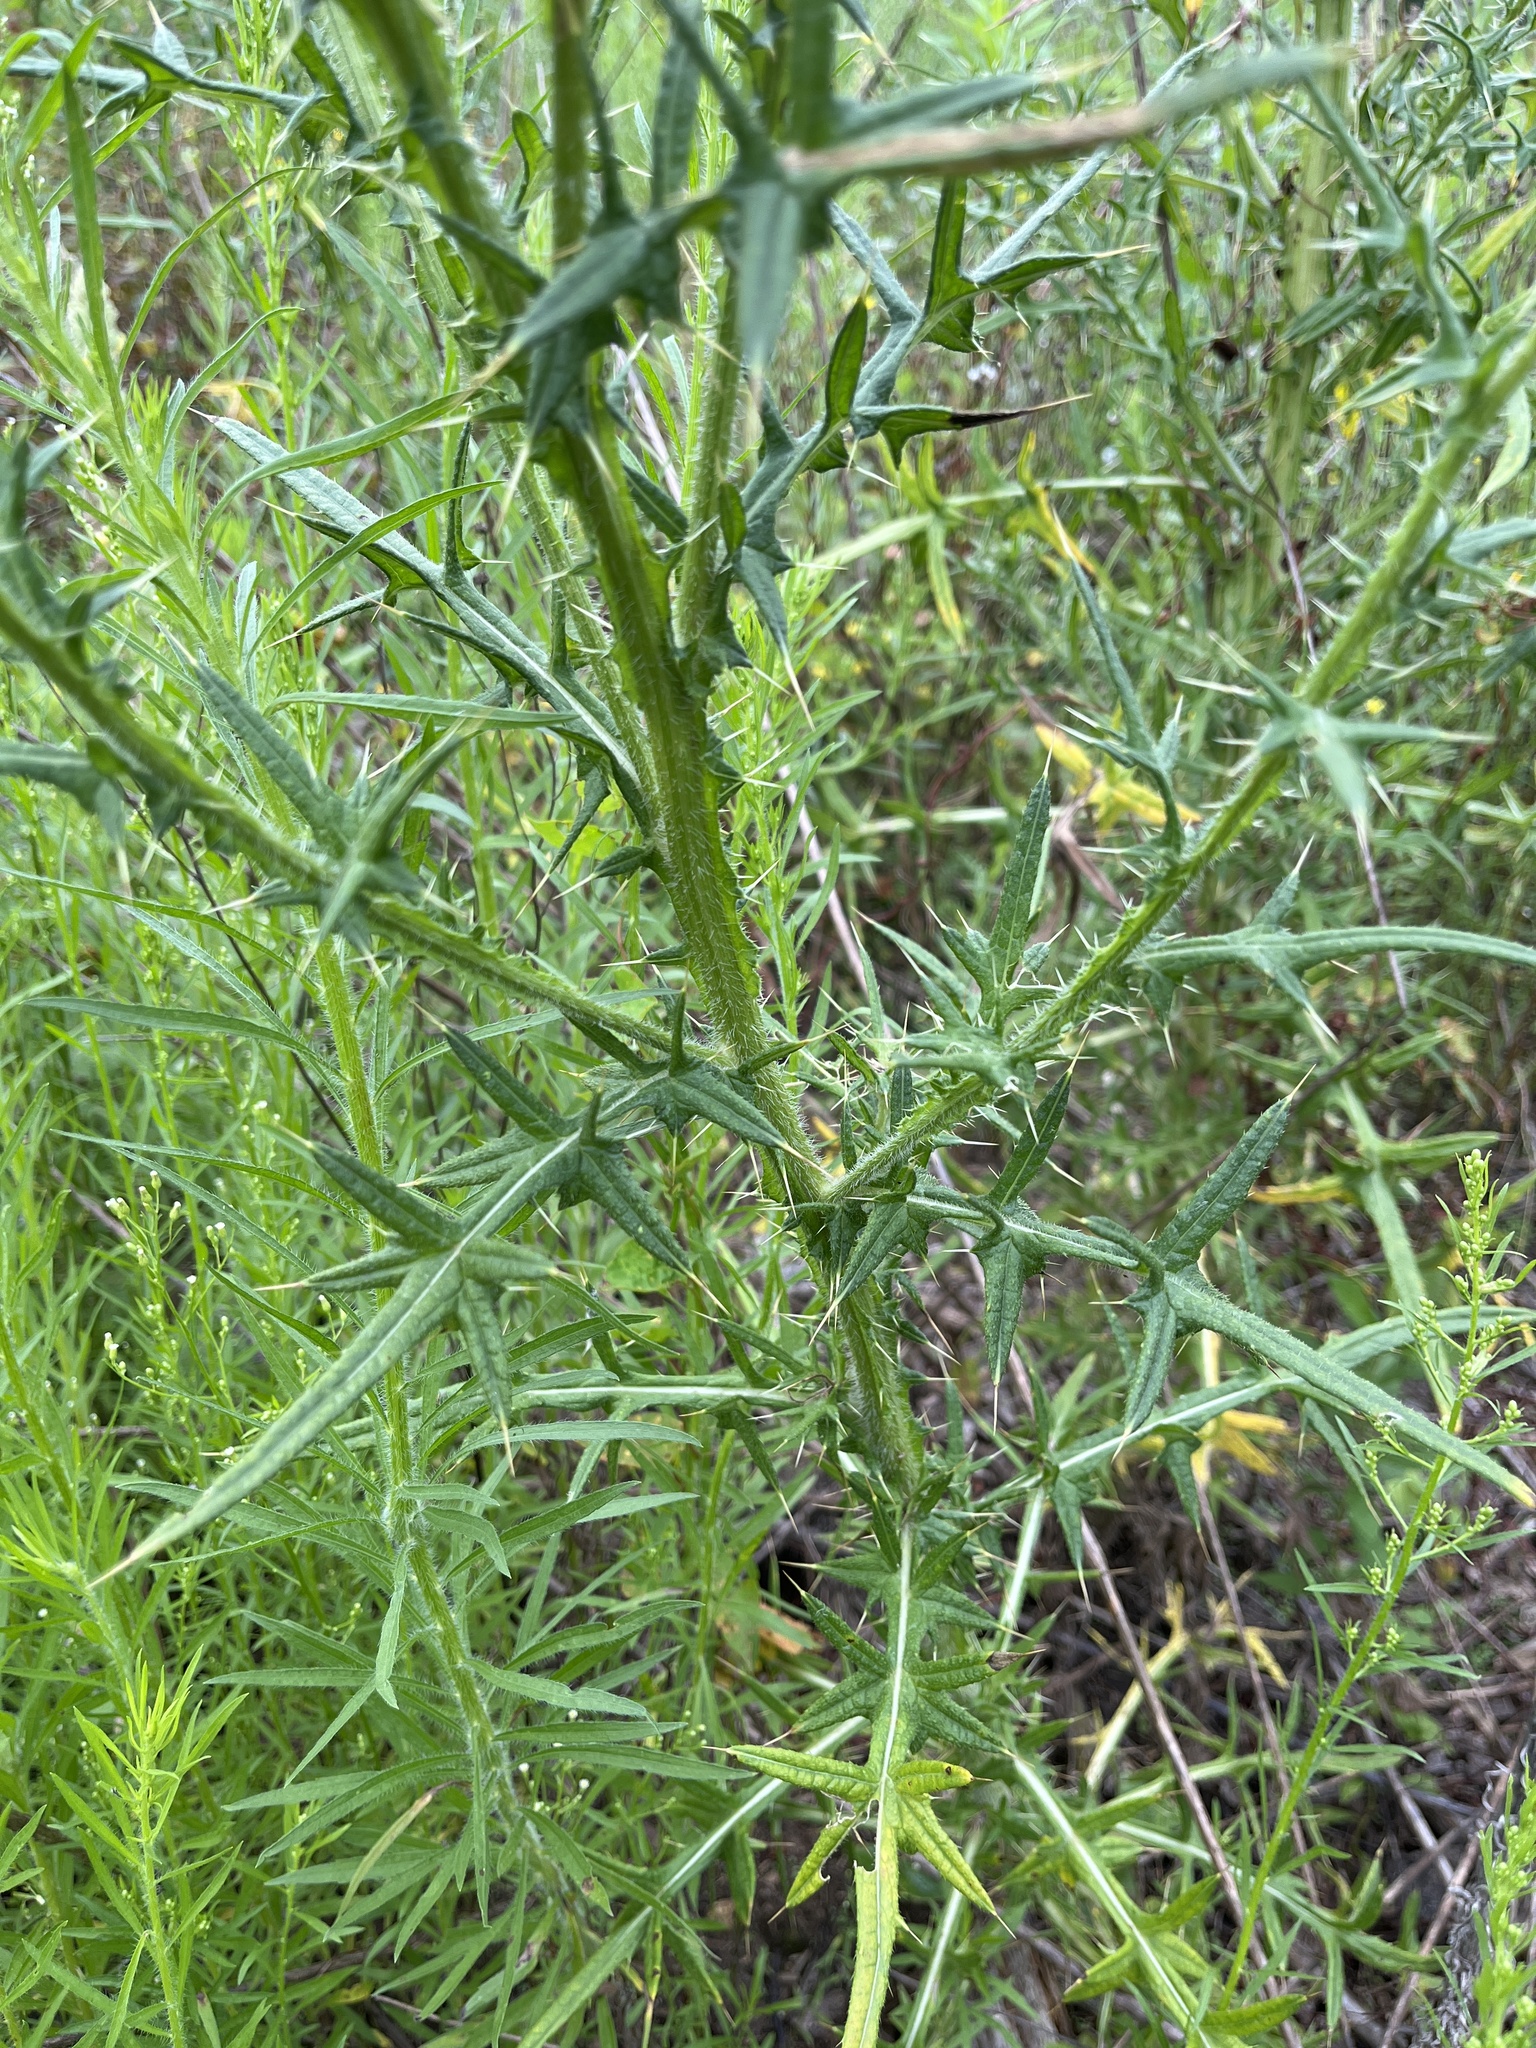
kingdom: Plantae
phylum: Tracheophyta
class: Magnoliopsida
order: Asterales
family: Asteraceae
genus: Cirsium
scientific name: Cirsium vulgare
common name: Bull thistle
